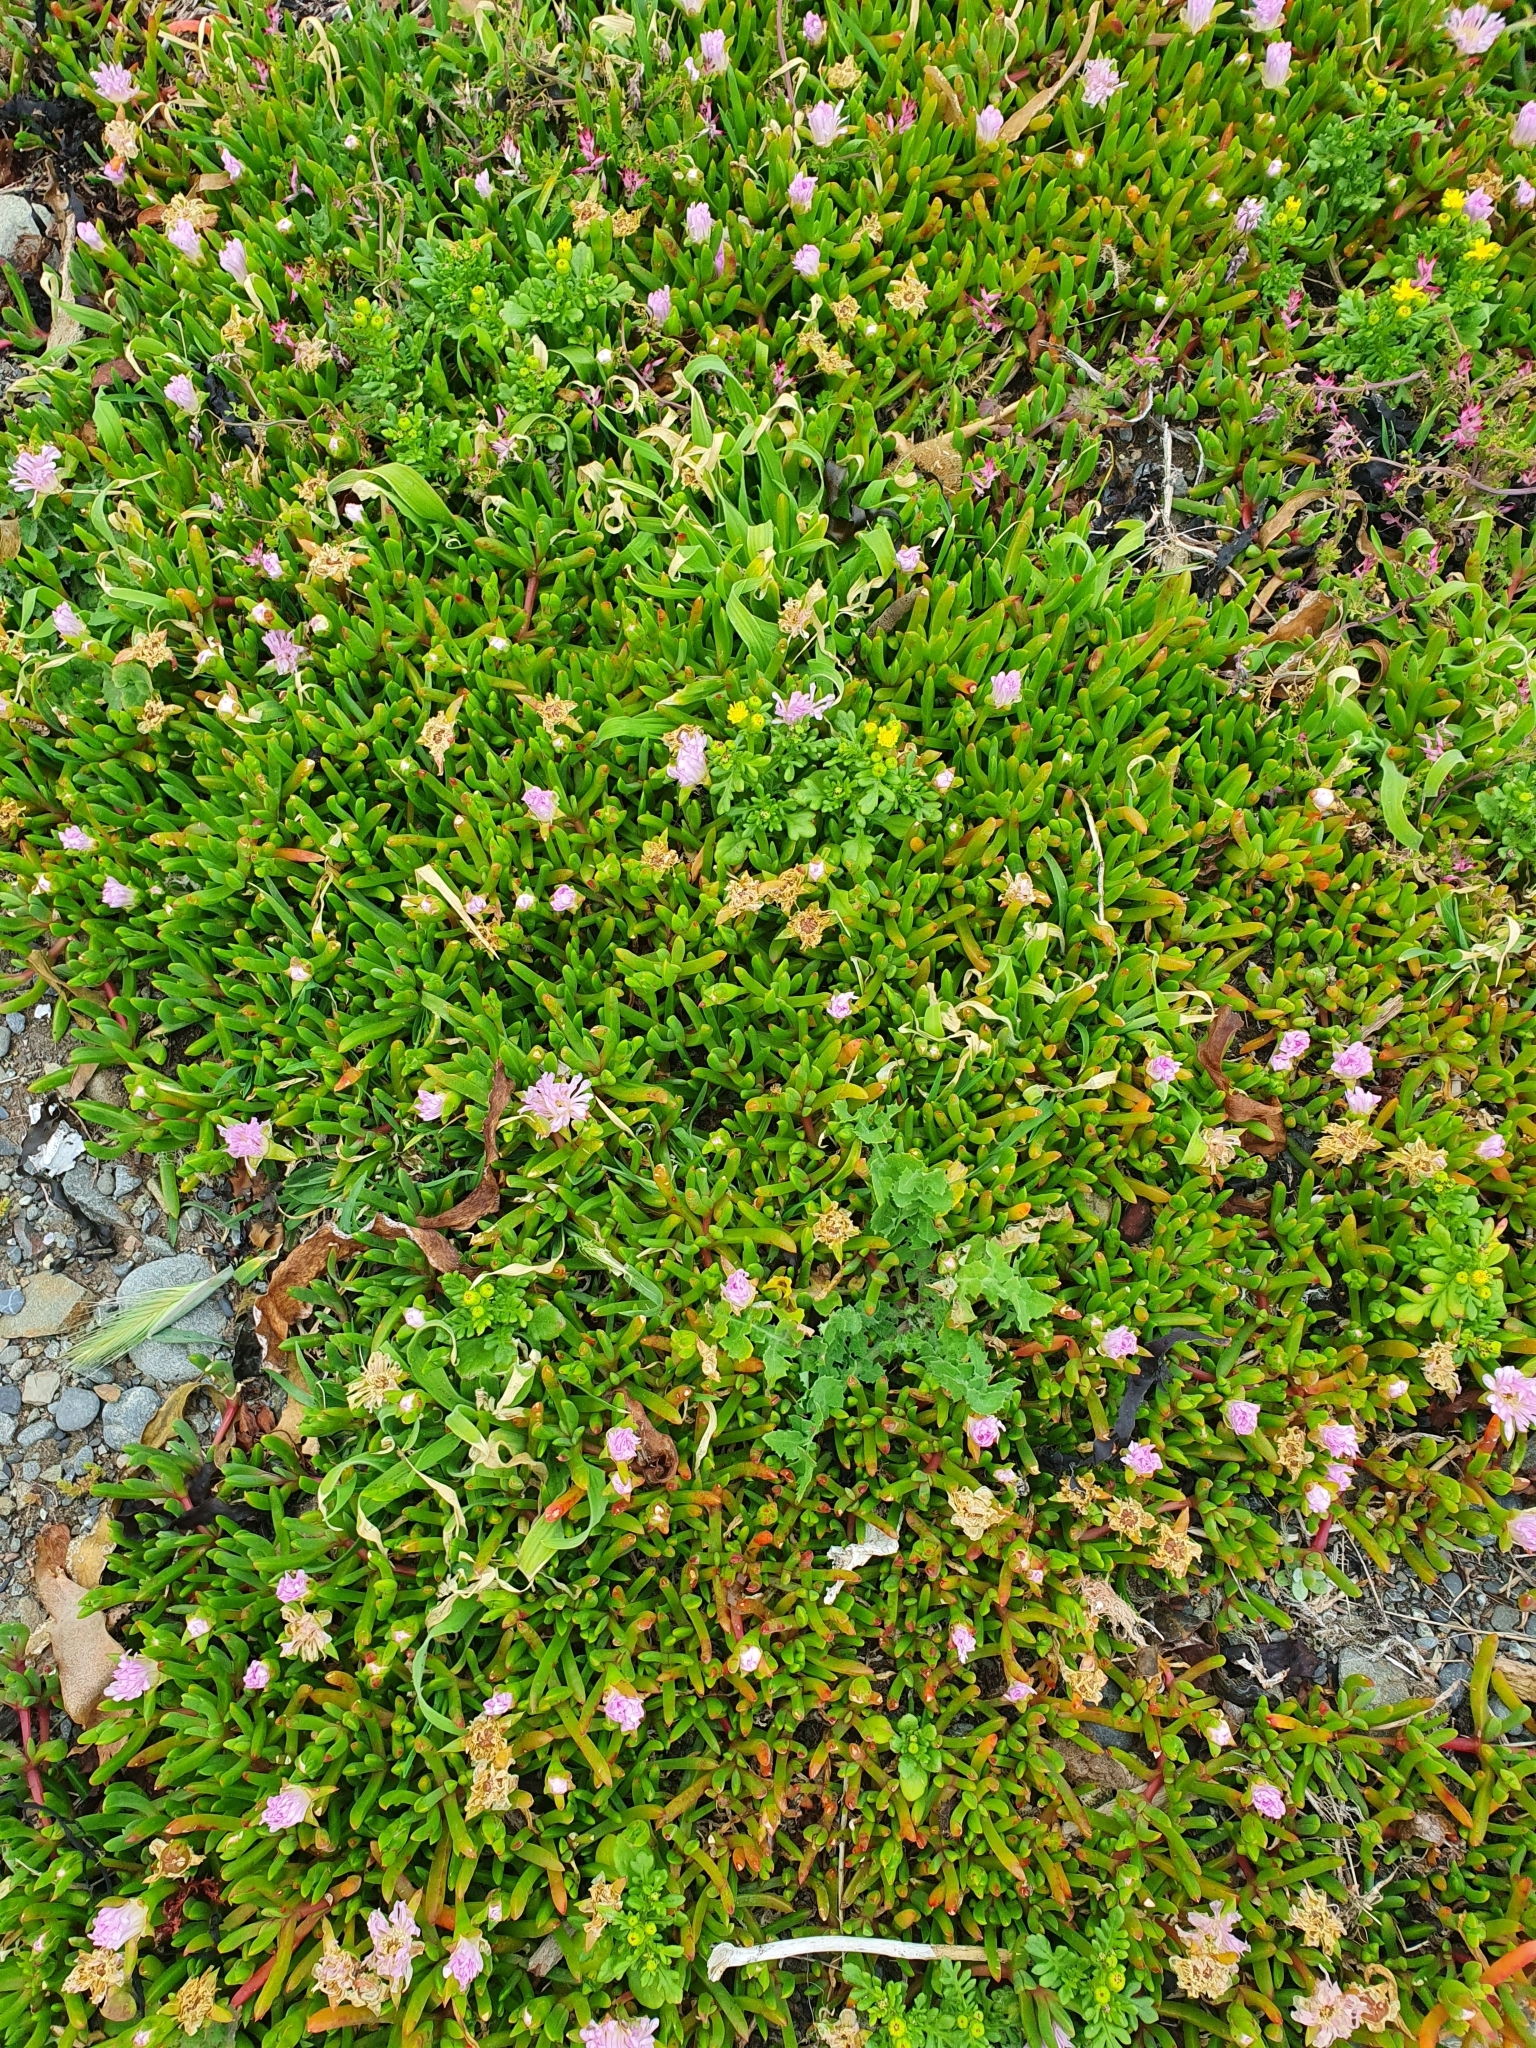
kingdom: Plantae
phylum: Tracheophyta
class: Magnoliopsida
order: Caryophyllales
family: Aizoaceae
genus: Disphyma
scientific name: Disphyma australe
